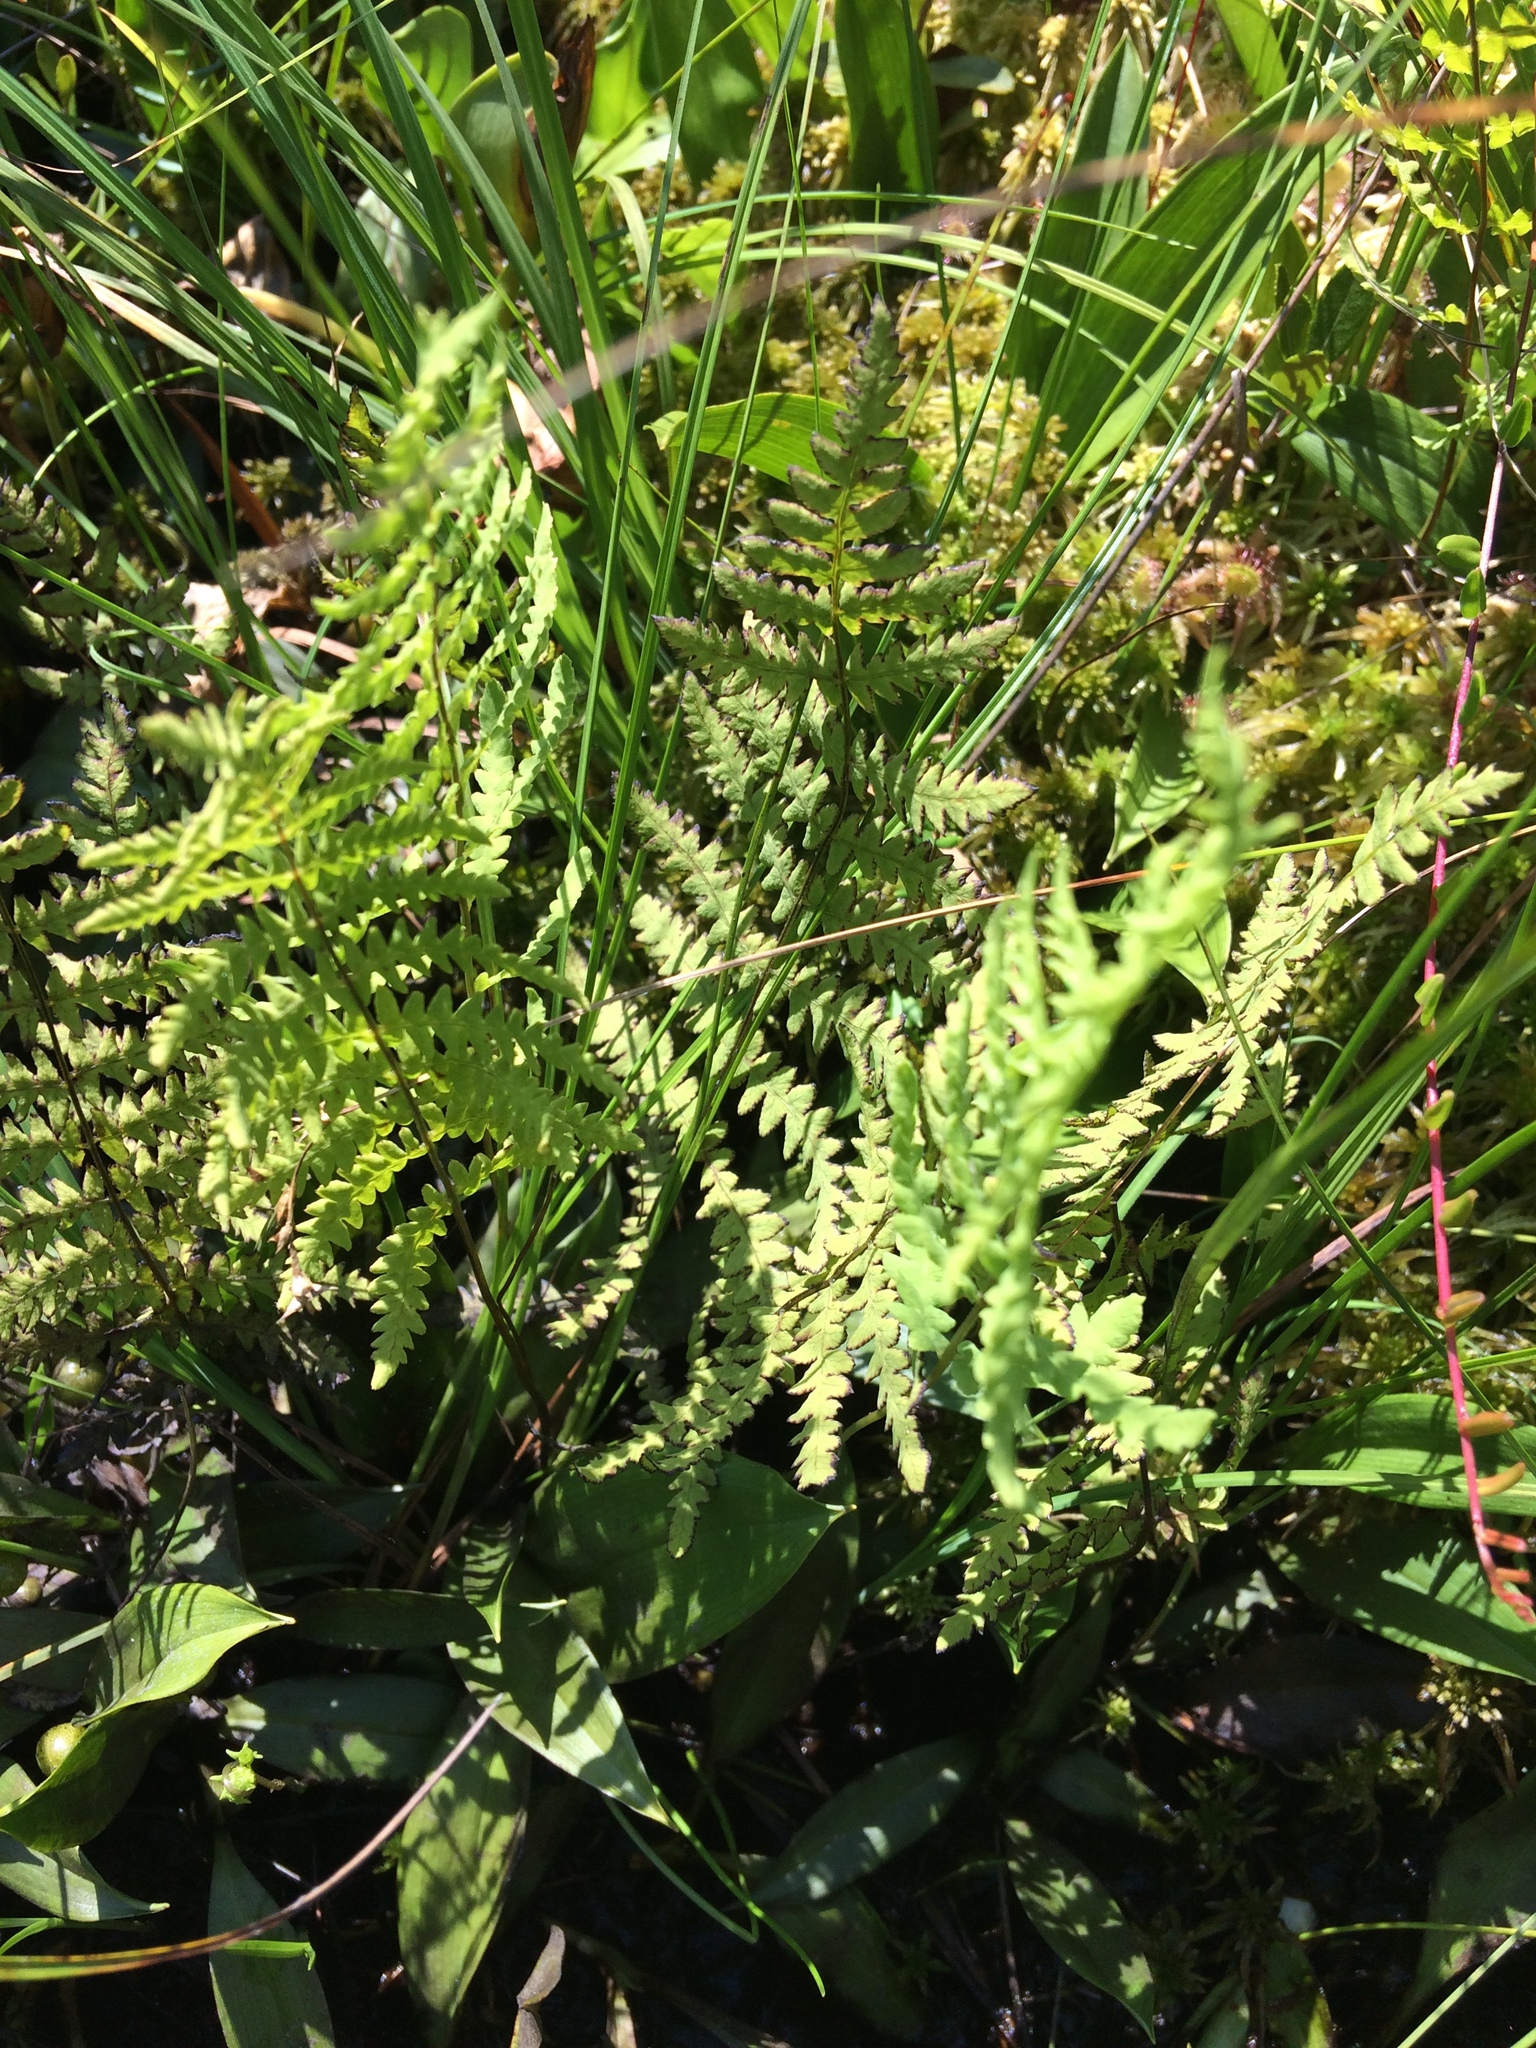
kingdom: Plantae
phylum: Tracheophyta
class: Polypodiopsida
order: Polypodiales
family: Thelypteridaceae
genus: Thelypteris
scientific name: Thelypteris palustris
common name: Marsh fern
